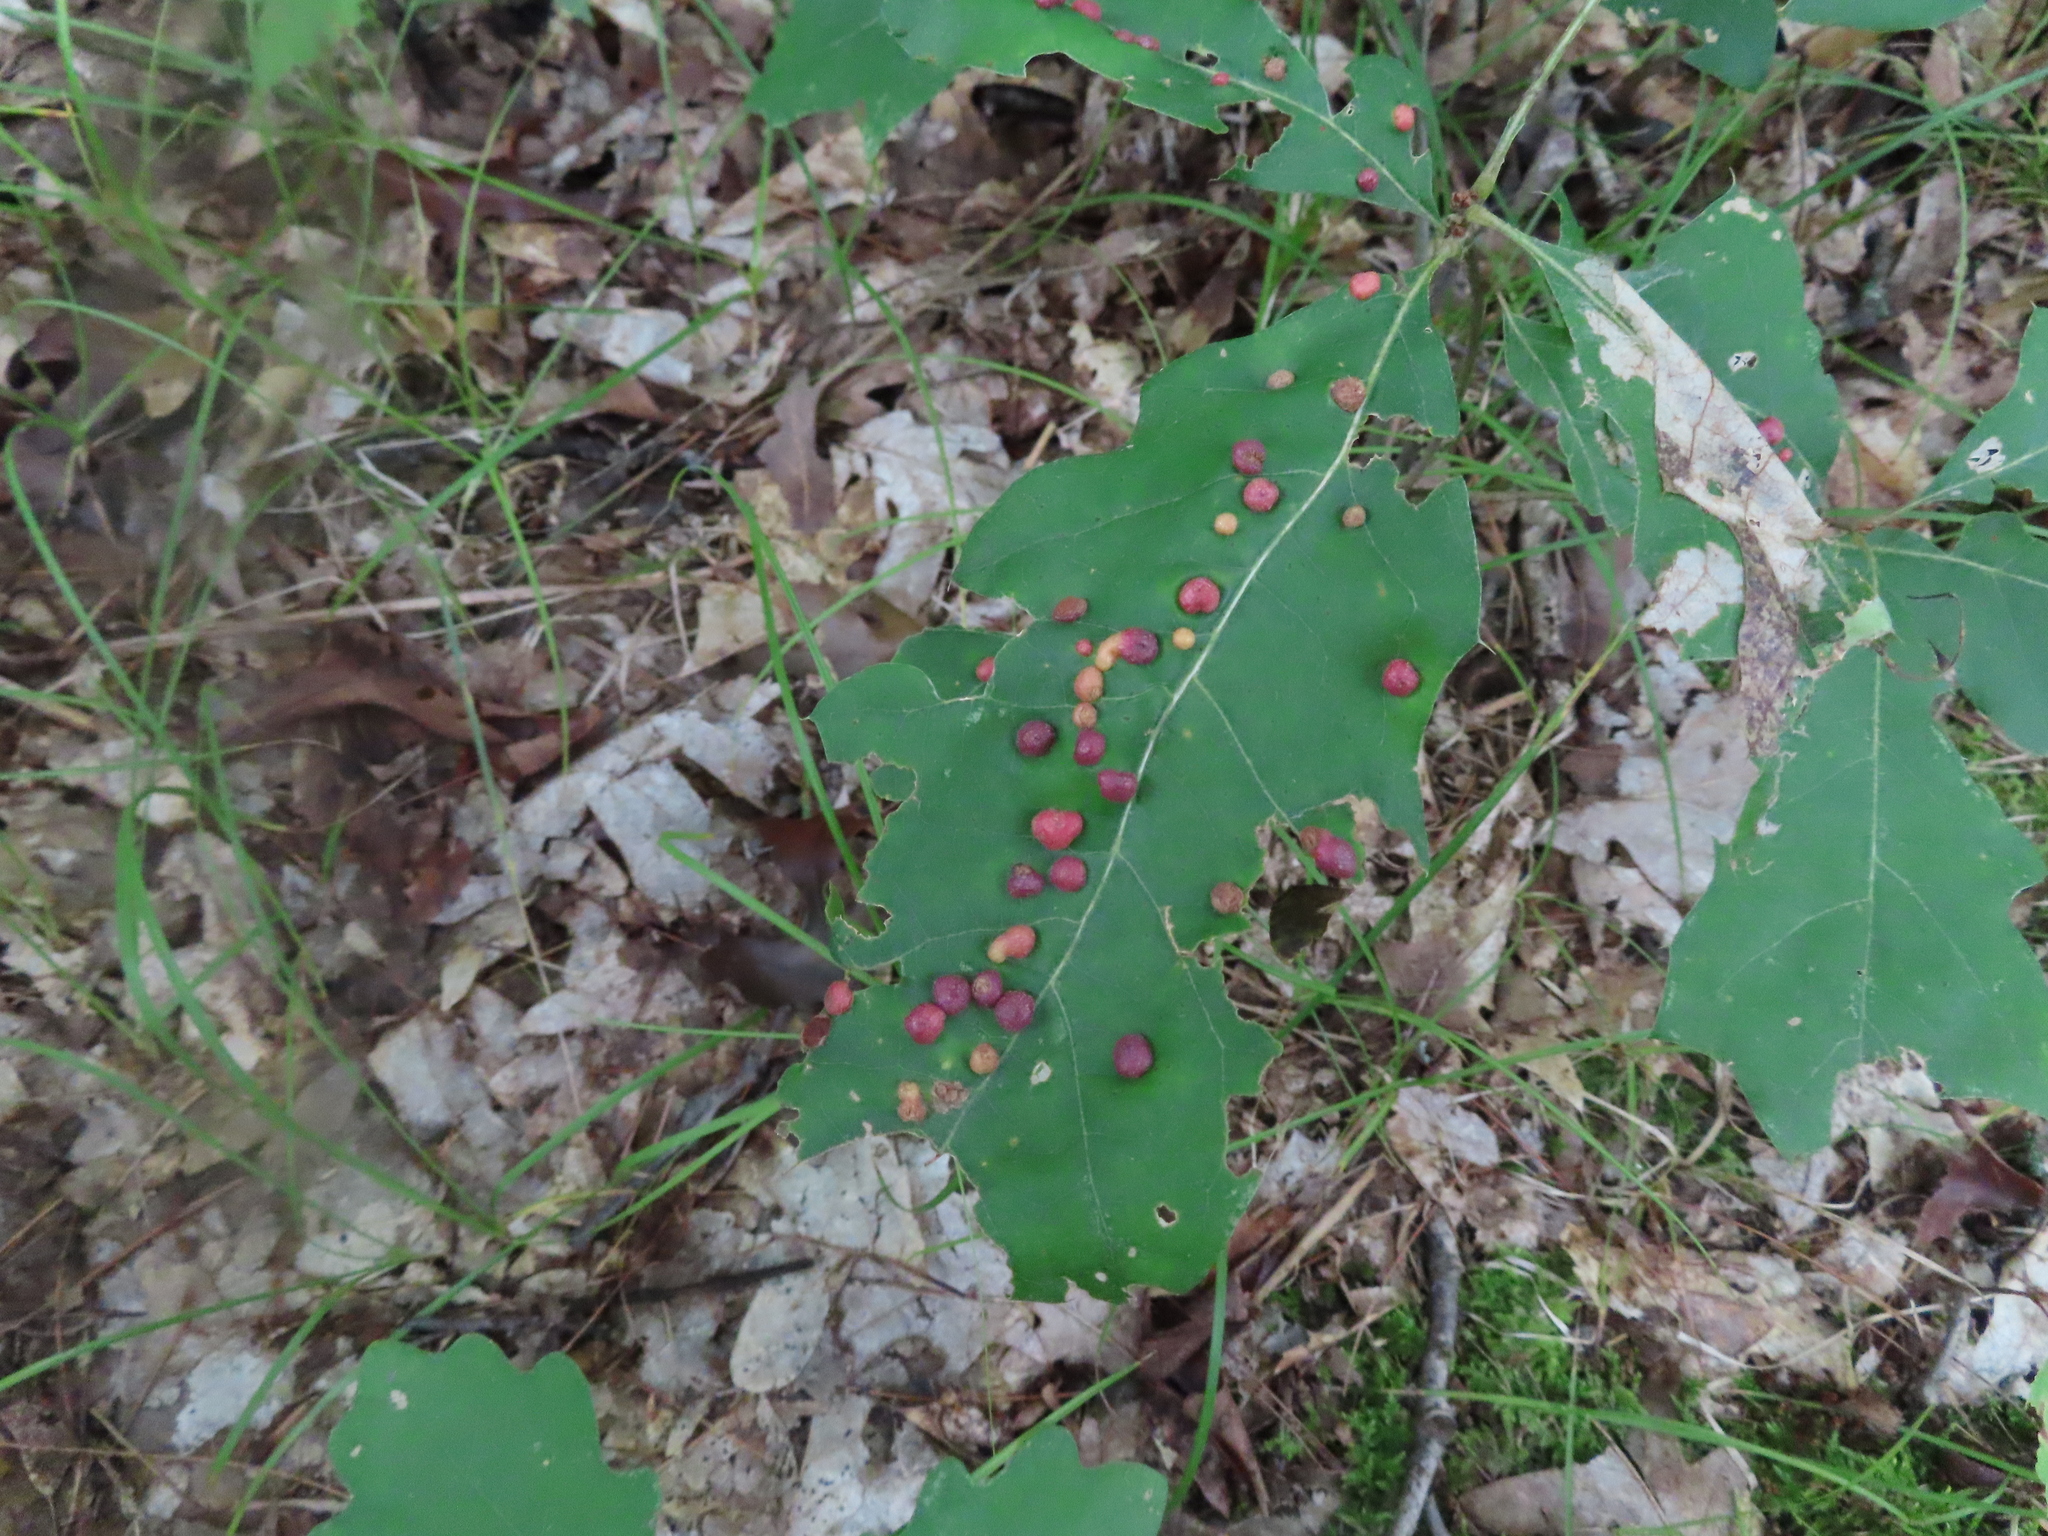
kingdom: Animalia
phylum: Arthropoda
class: Insecta
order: Diptera
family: Cecidomyiidae
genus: Polystepha
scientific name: Polystepha pilulae
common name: Oak leaf gall midge
